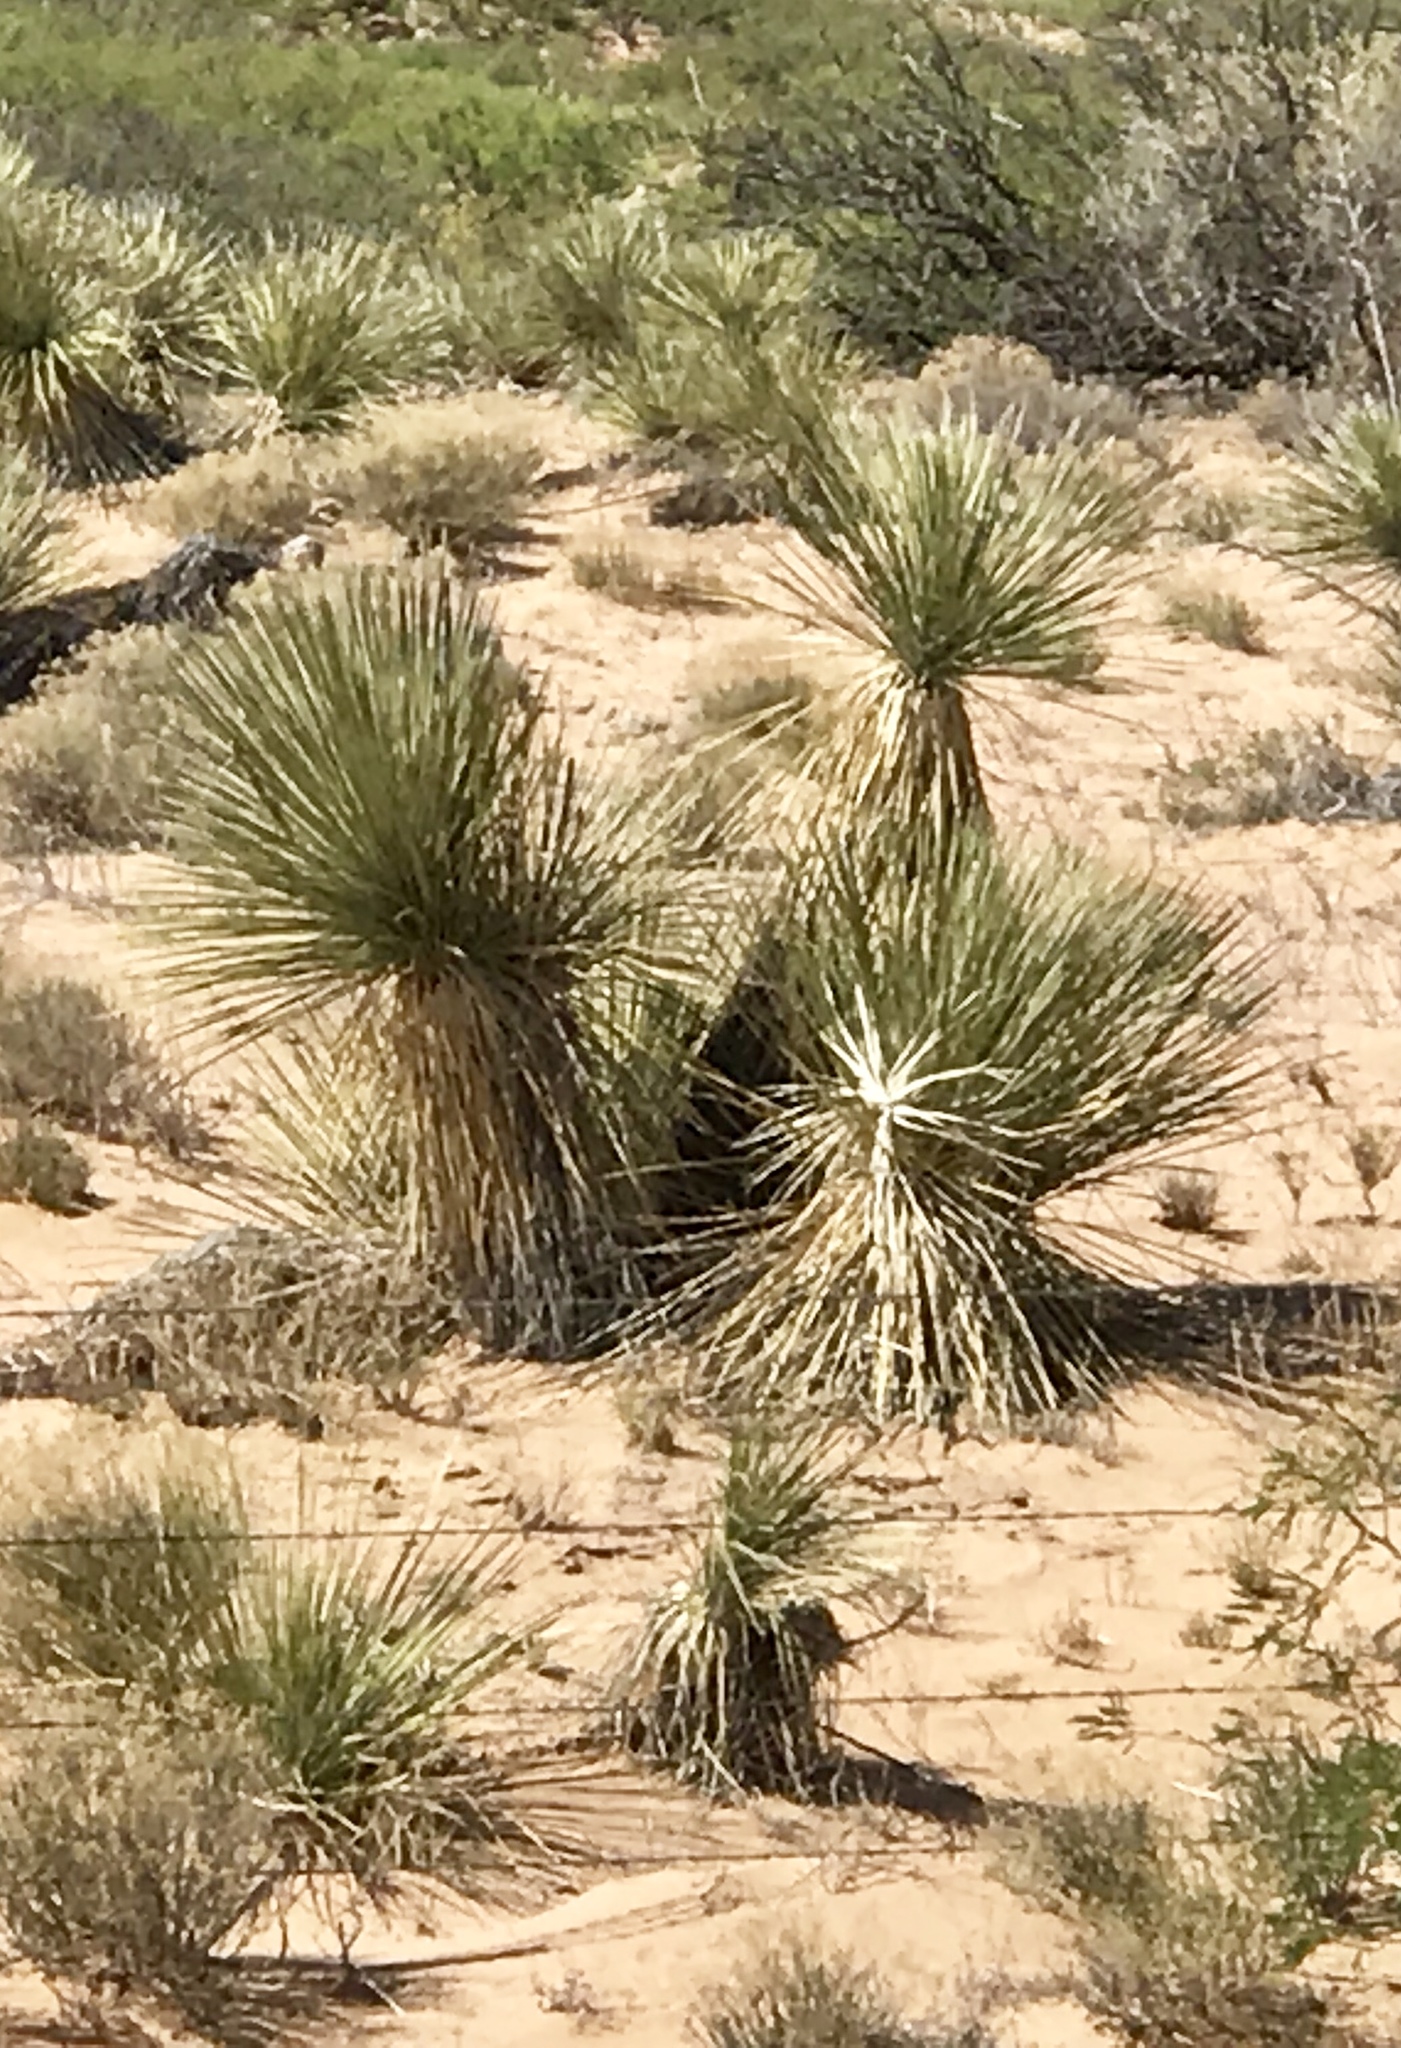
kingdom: Plantae
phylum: Tracheophyta
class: Liliopsida
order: Asparagales
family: Asparagaceae
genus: Yucca
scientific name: Yucca elata
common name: Palmella
